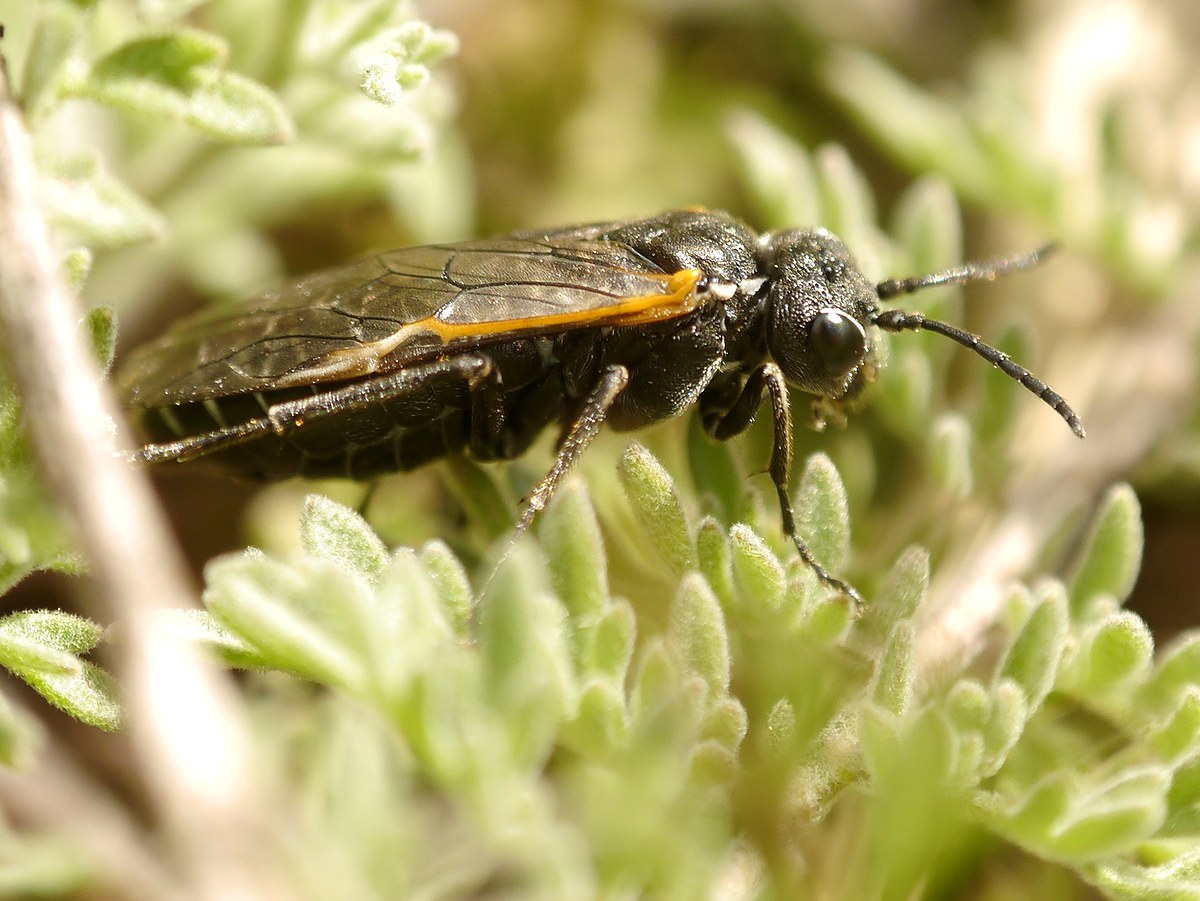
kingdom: Animalia
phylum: Arthropoda
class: Insecta
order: Hymenoptera
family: Tenthredinidae
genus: Sciapteryx
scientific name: Sciapteryx costalis
